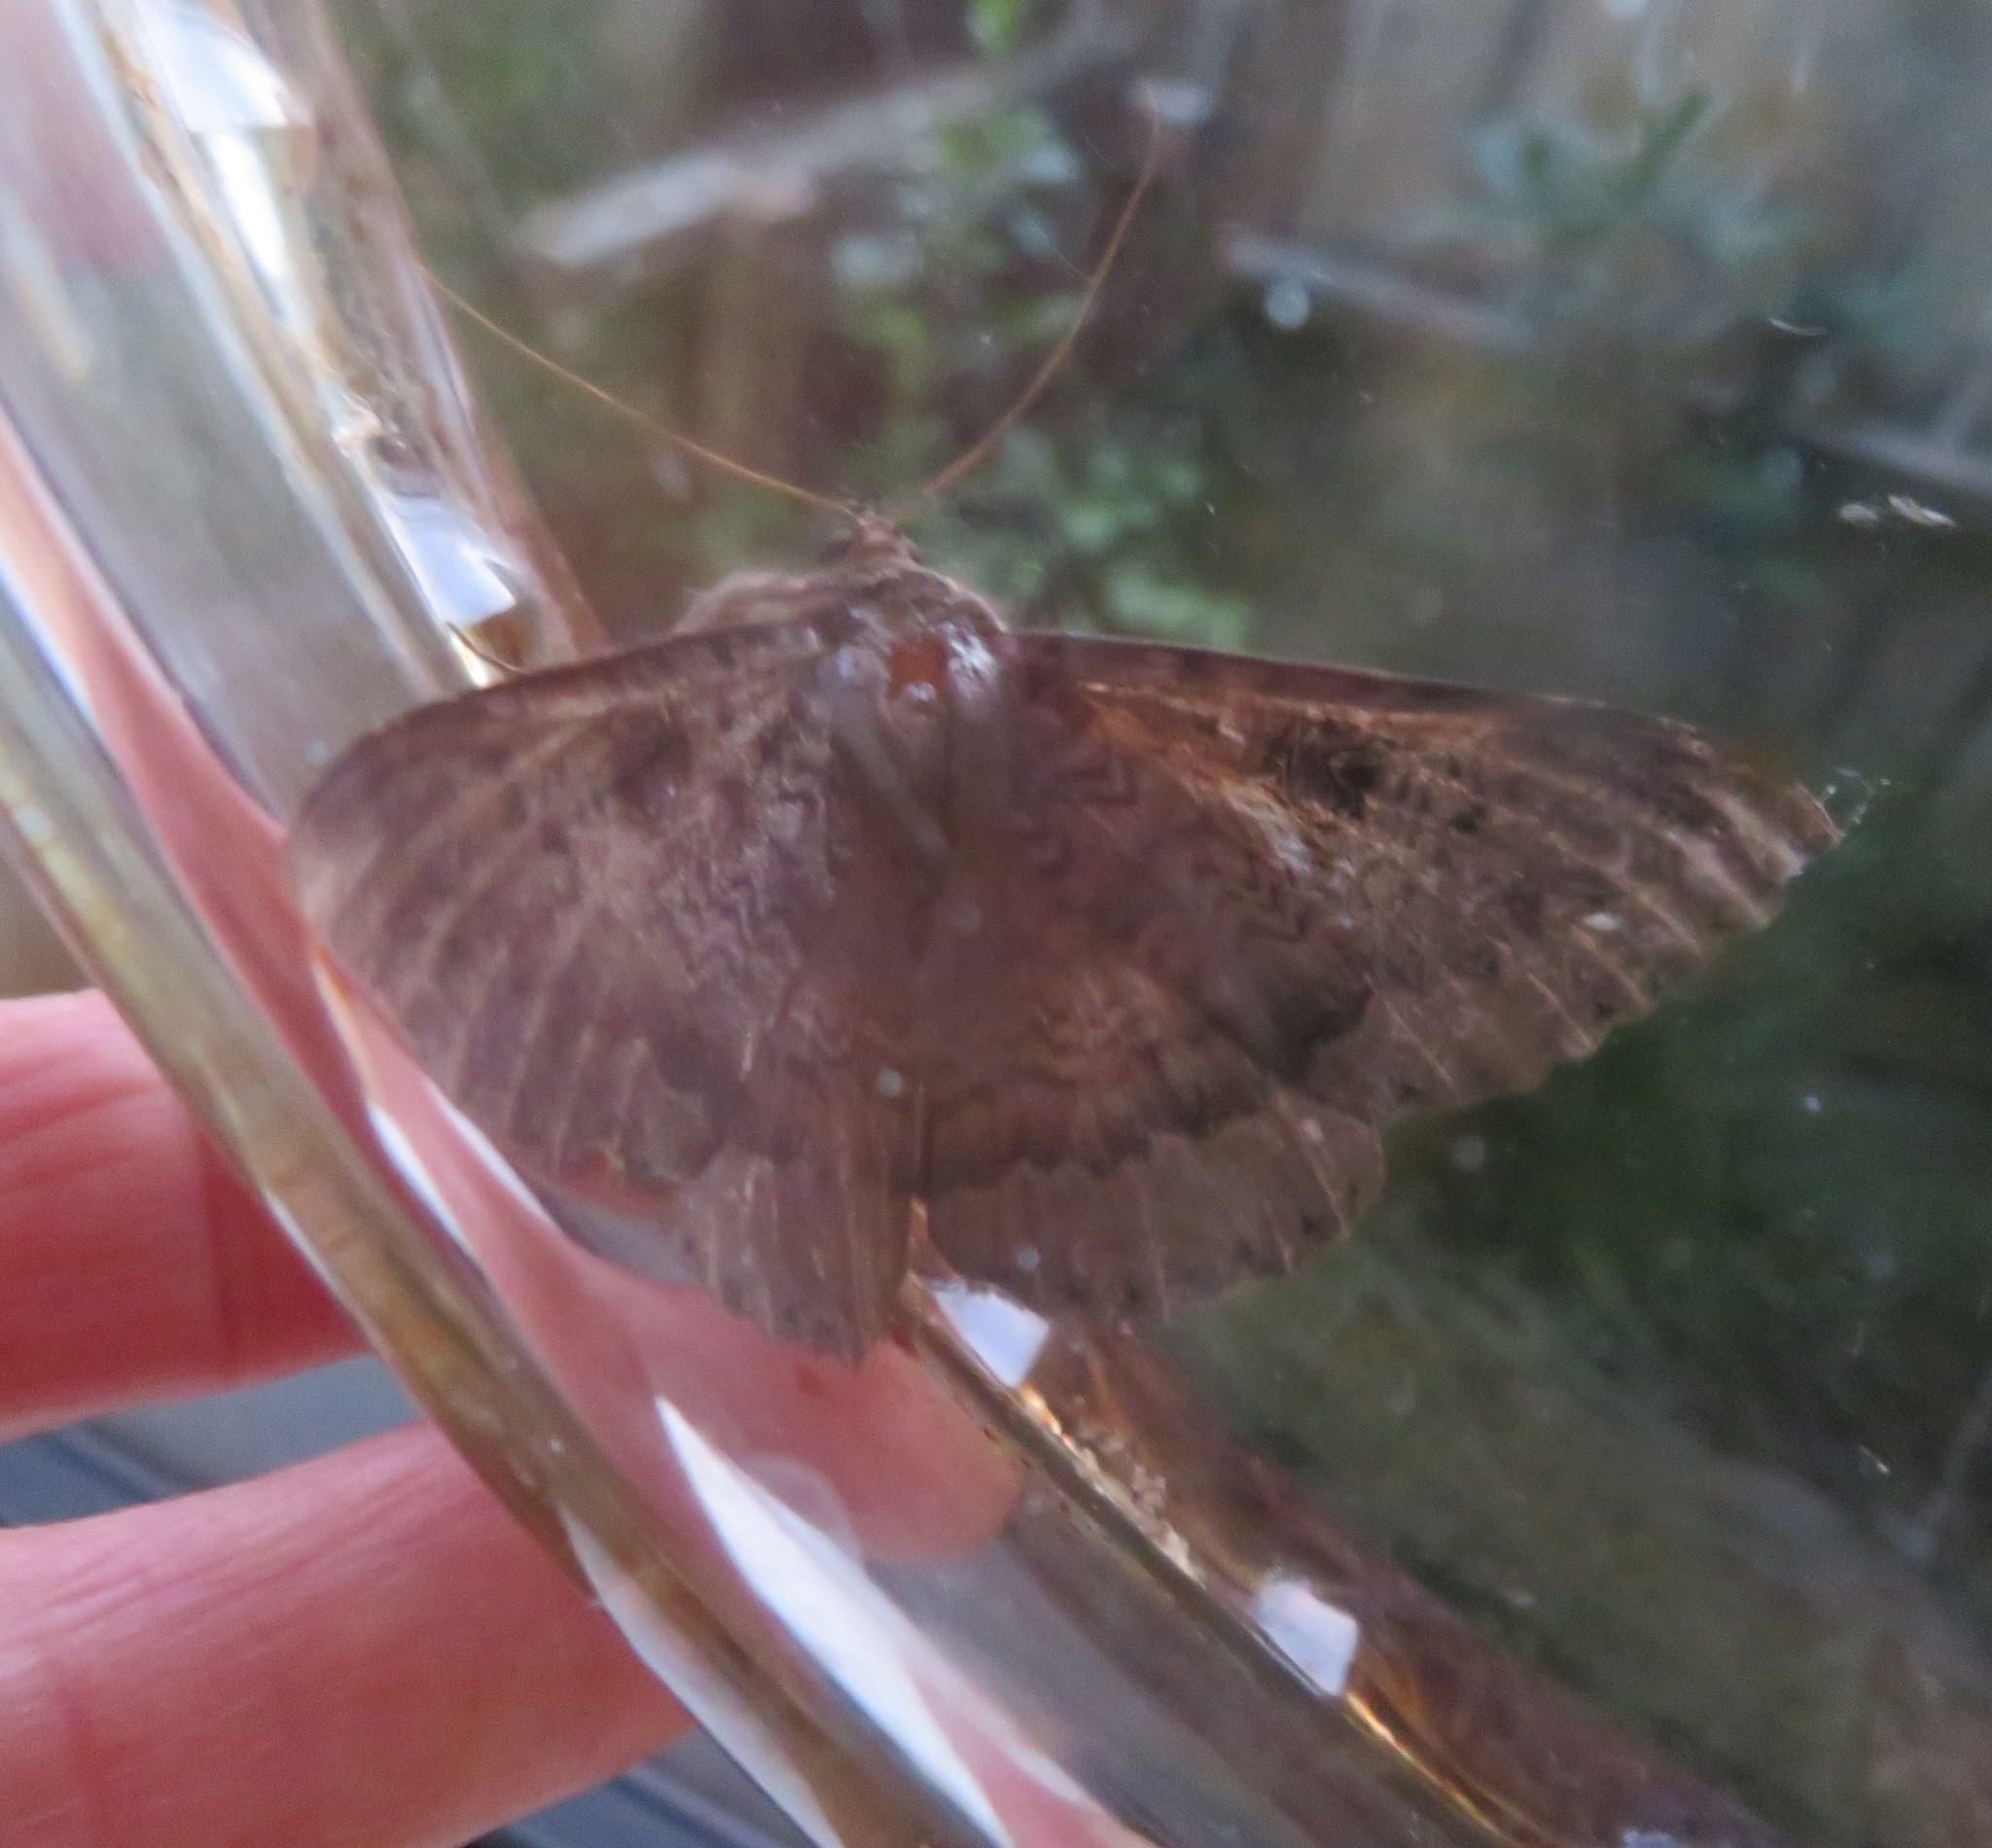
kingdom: Animalia
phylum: Arthropoda
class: Insecta
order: Lepidoptera
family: Erebidae
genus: Dasypodia
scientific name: Dasypodia cymatodes
